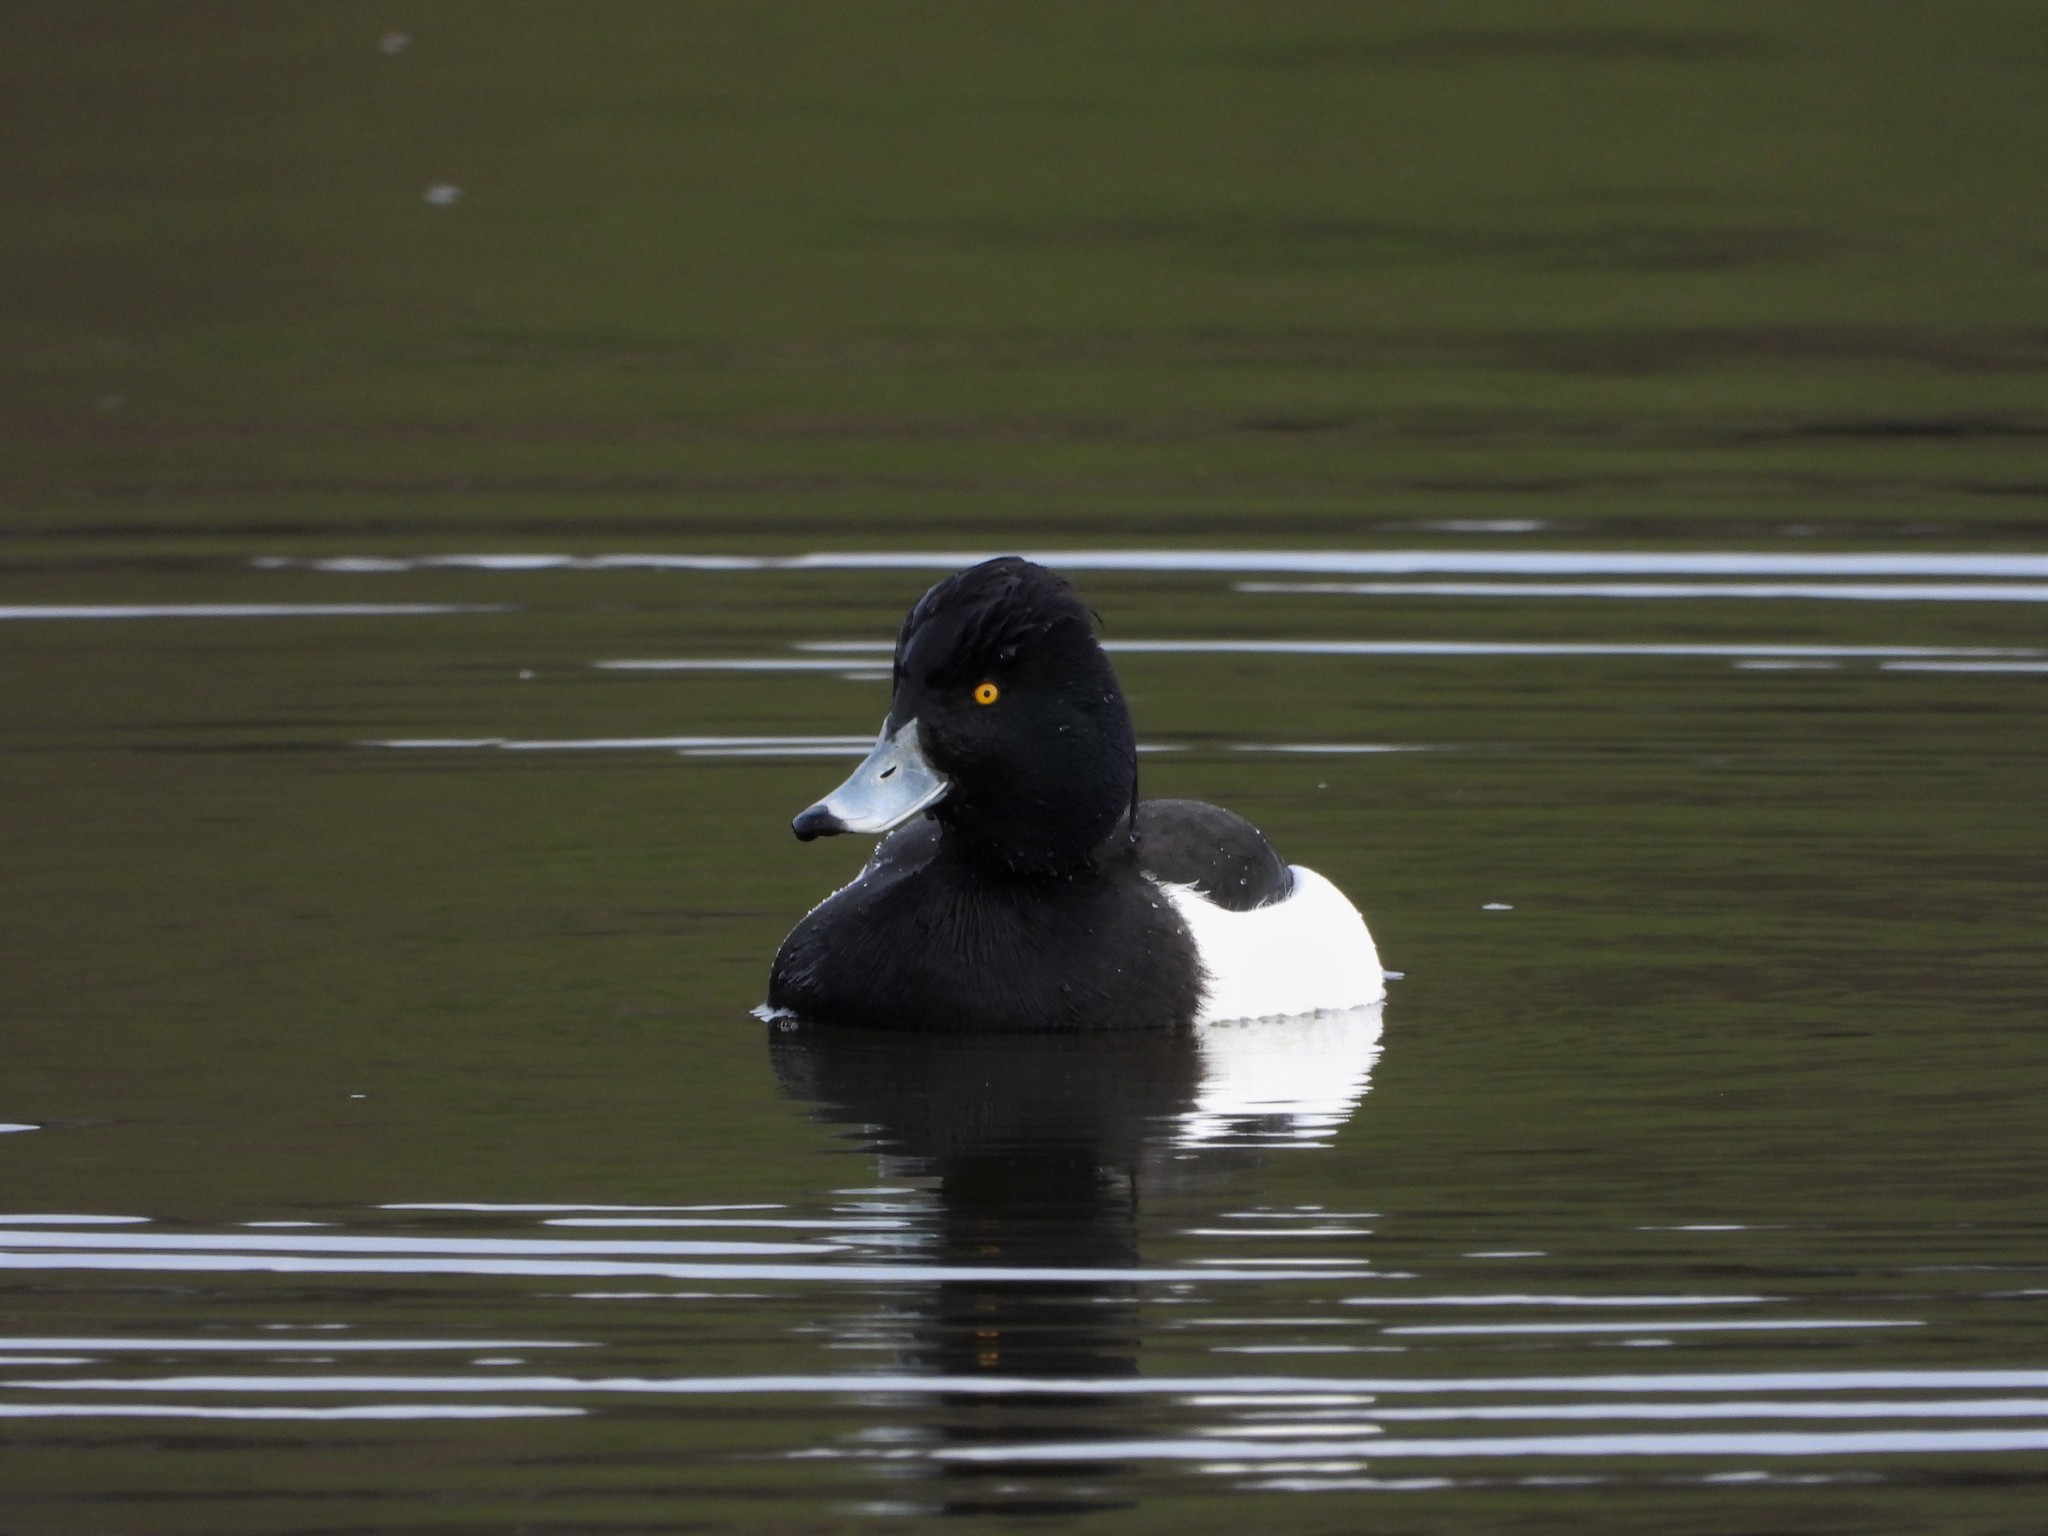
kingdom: Animalia
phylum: Chordata
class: Aves
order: Anseriformes
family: Anatidae
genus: Aythya
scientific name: Aythya fuligula
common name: Tufted duck
